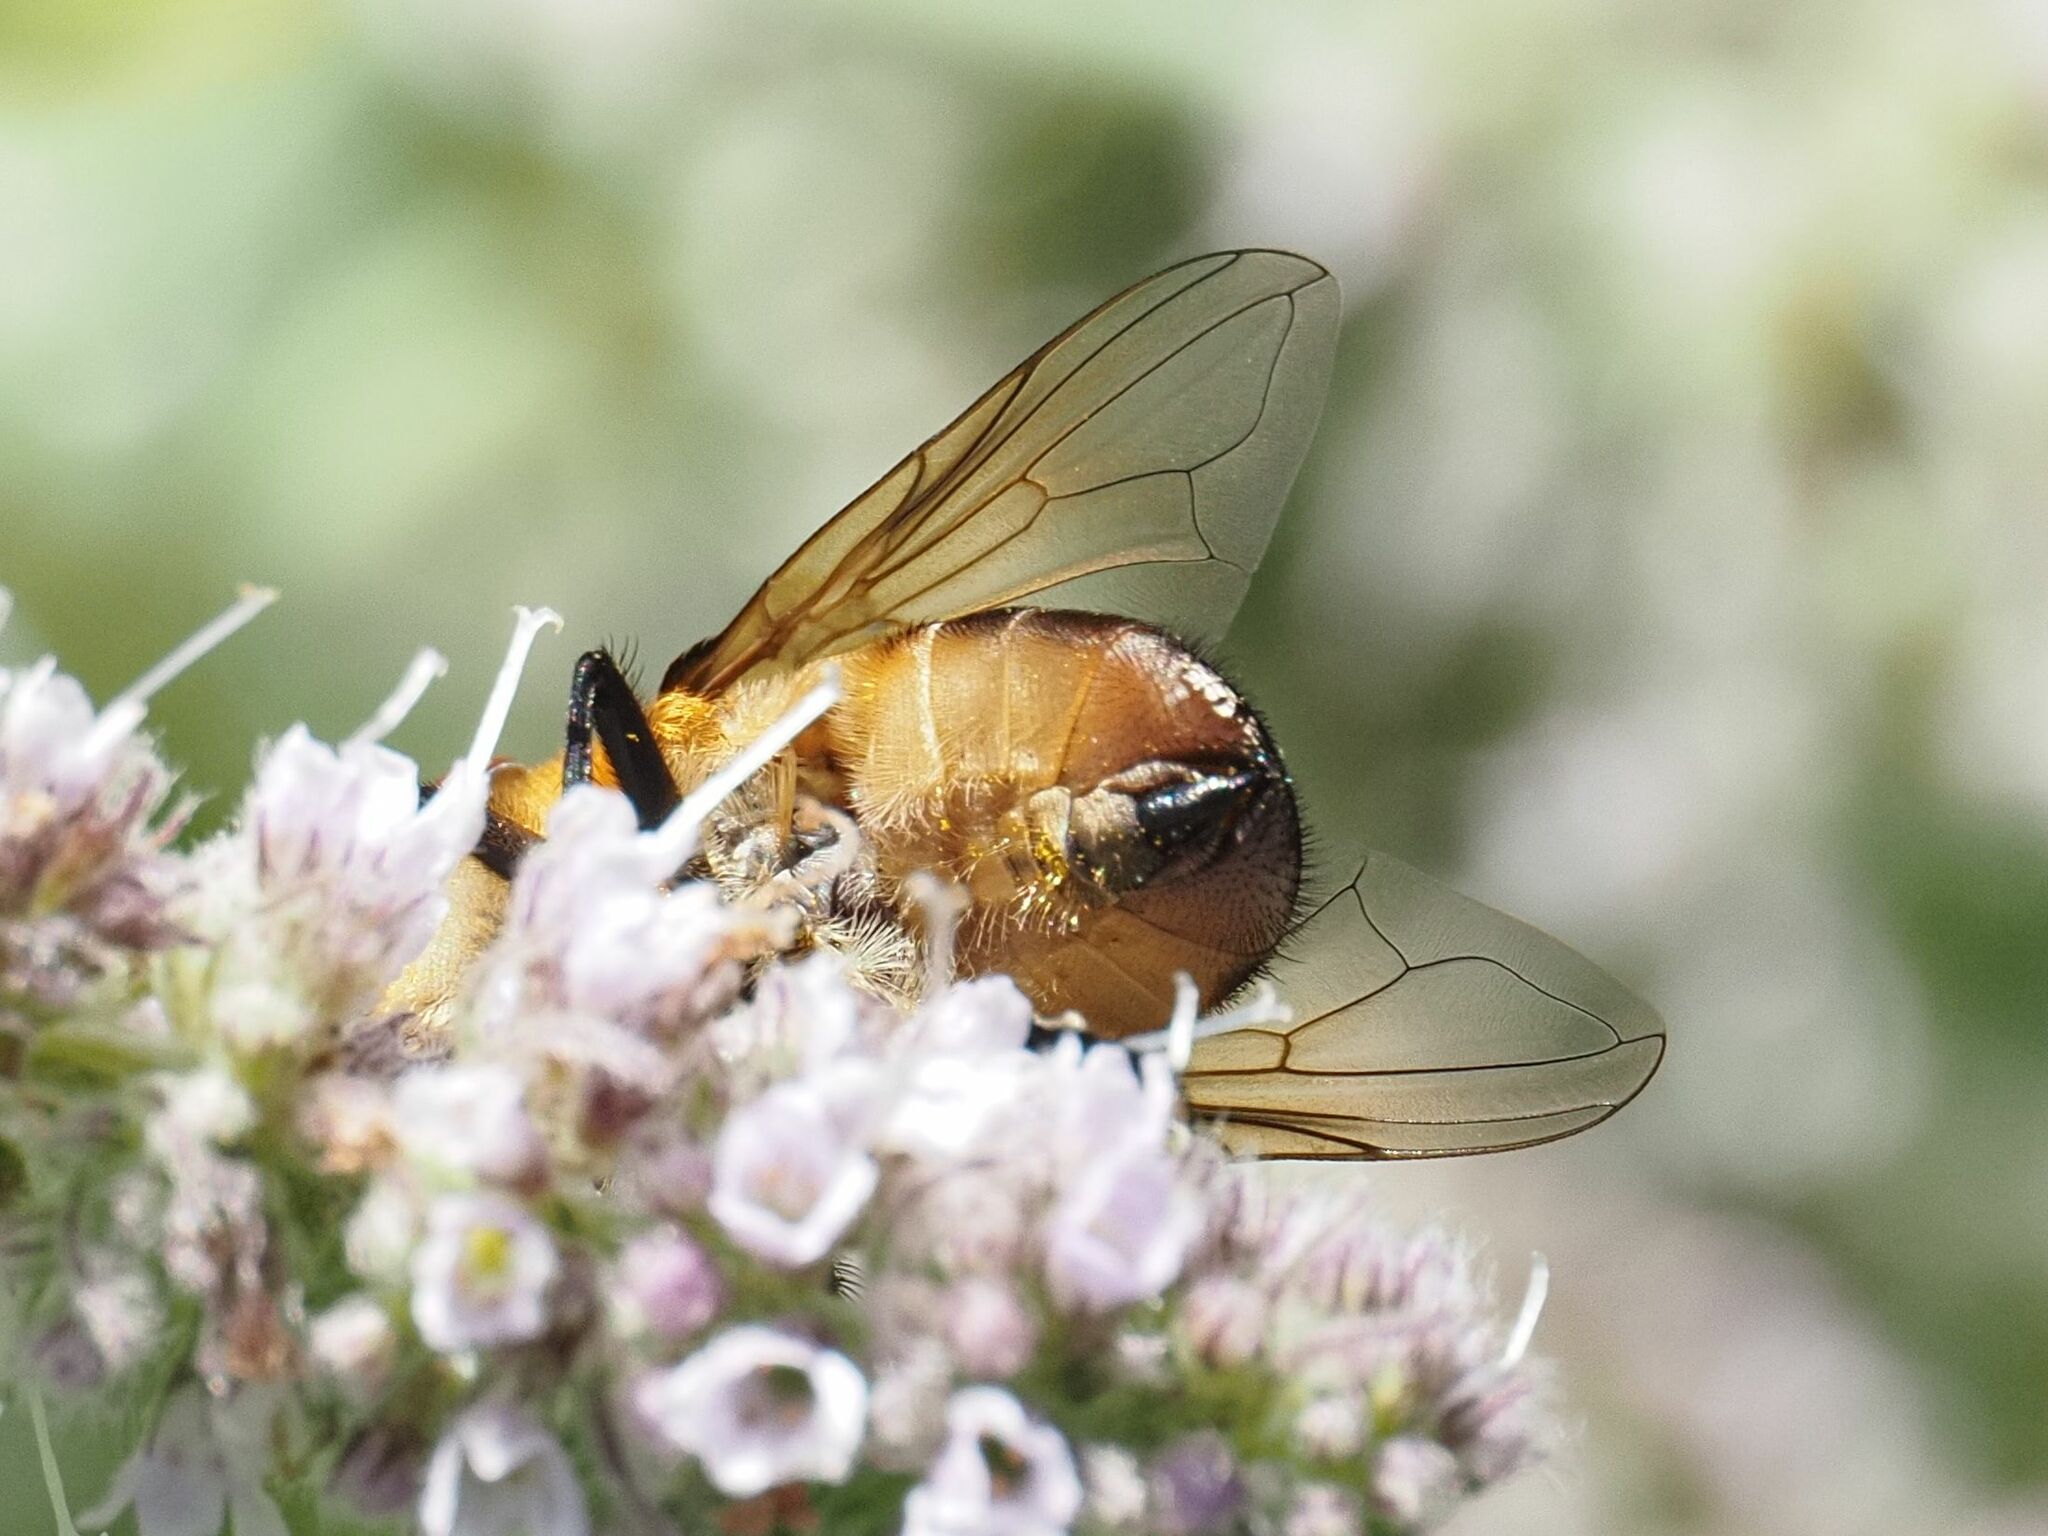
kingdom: Animalia
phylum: Arthropoda
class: Insecta
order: Diptera
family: Tachinidae
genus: Phasia
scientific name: Phasia hemiptera
